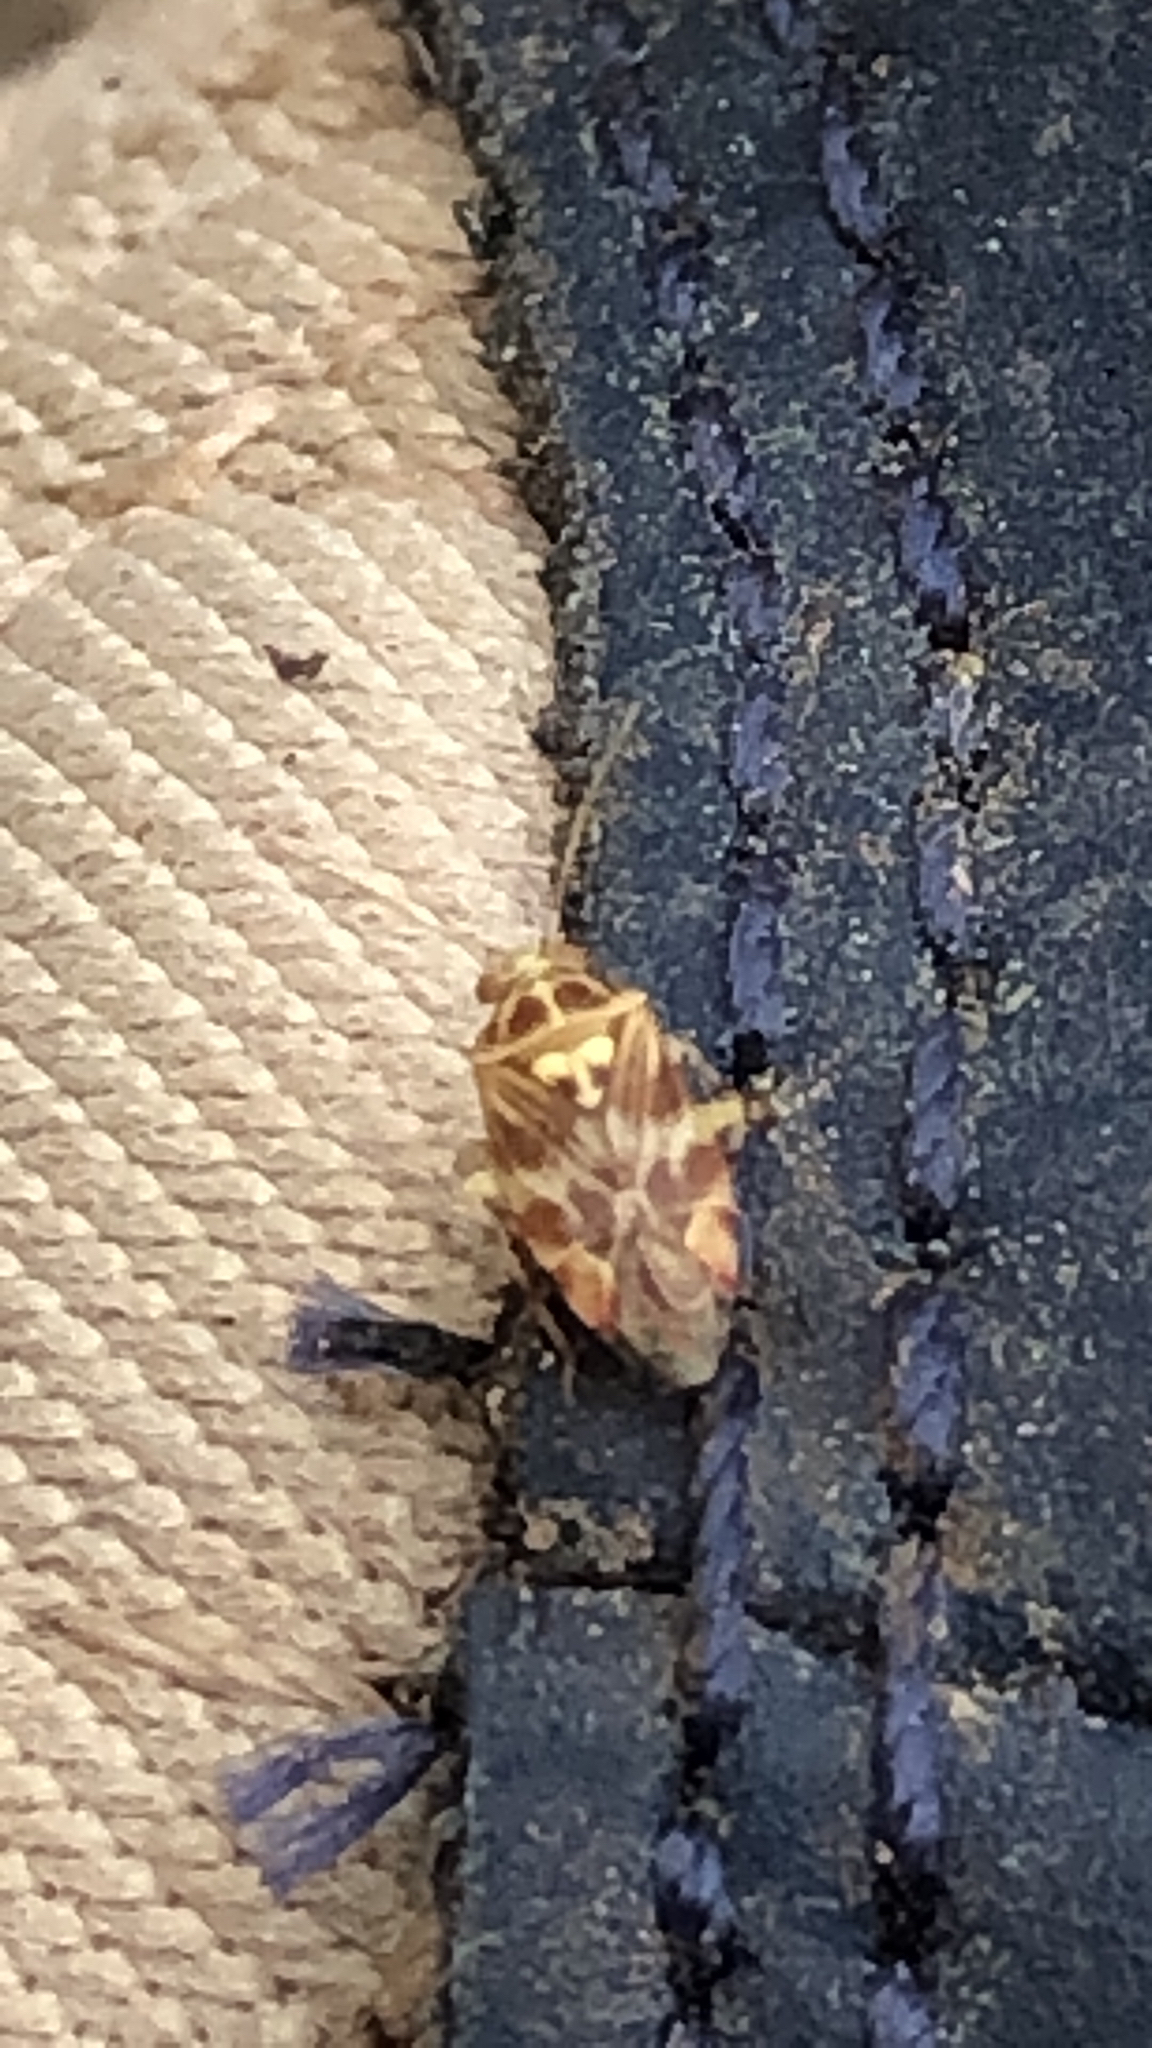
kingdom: Animalia
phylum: Arthropoda
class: Insecta
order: Hemiptera
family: Miridae
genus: Tropidosteptes
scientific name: Tropidosteptes quercicola
